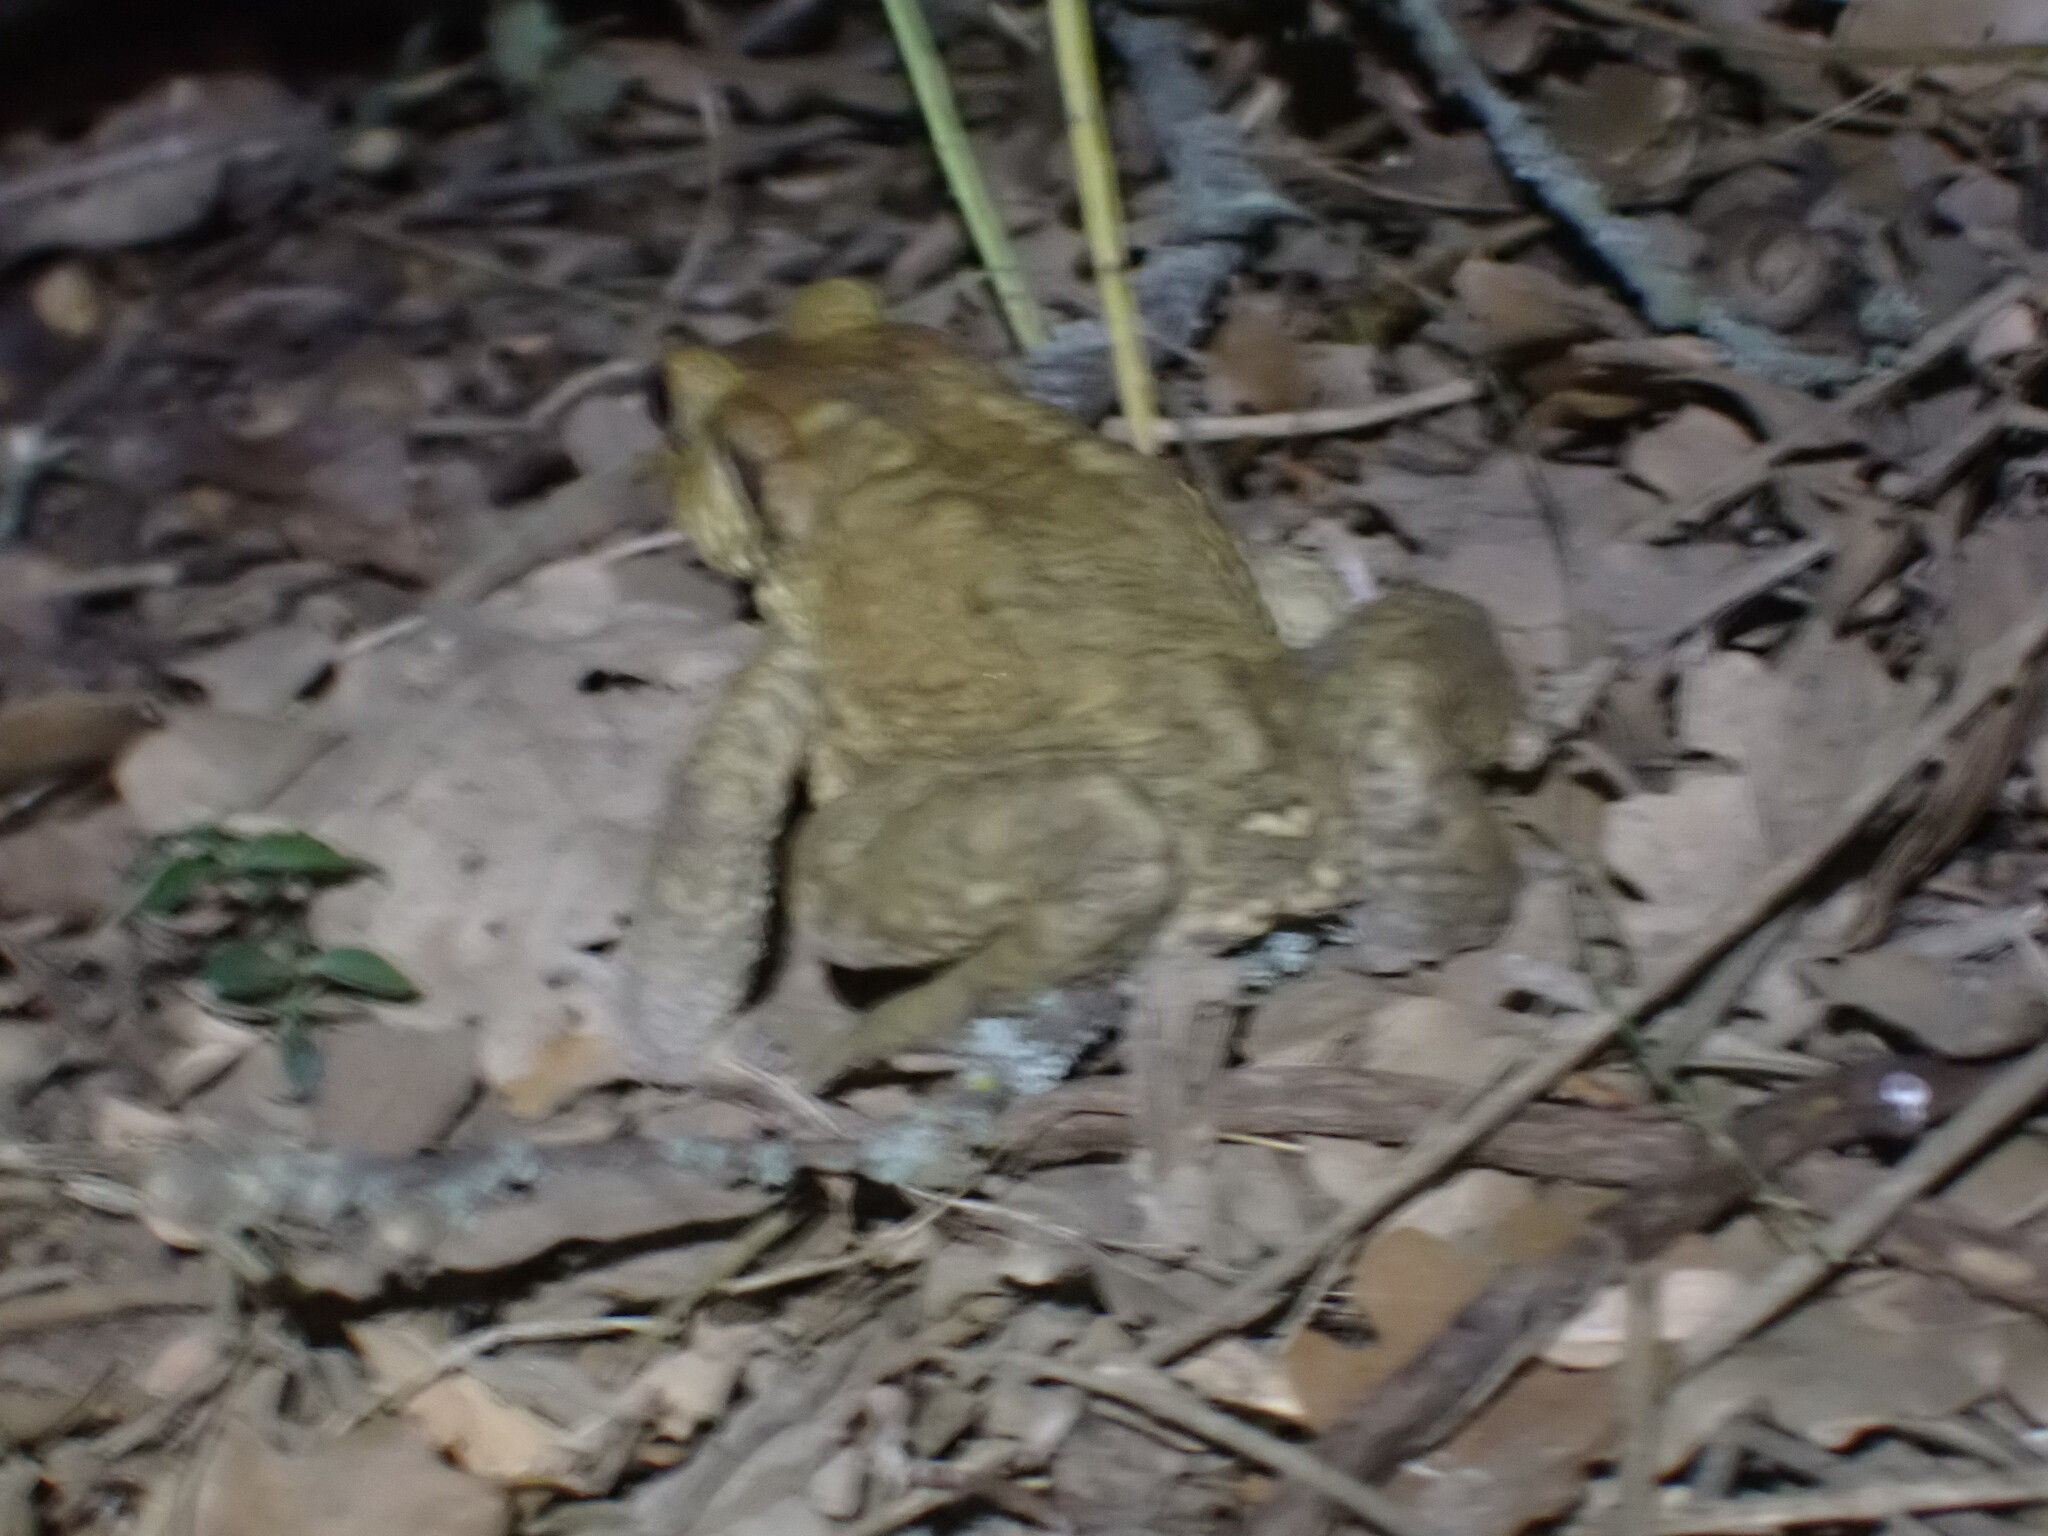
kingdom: Animalia
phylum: Chordata
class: Amphibia
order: Anura
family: Bufonidae
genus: Bufo
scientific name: Bufo spinosus
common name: Western common toad
